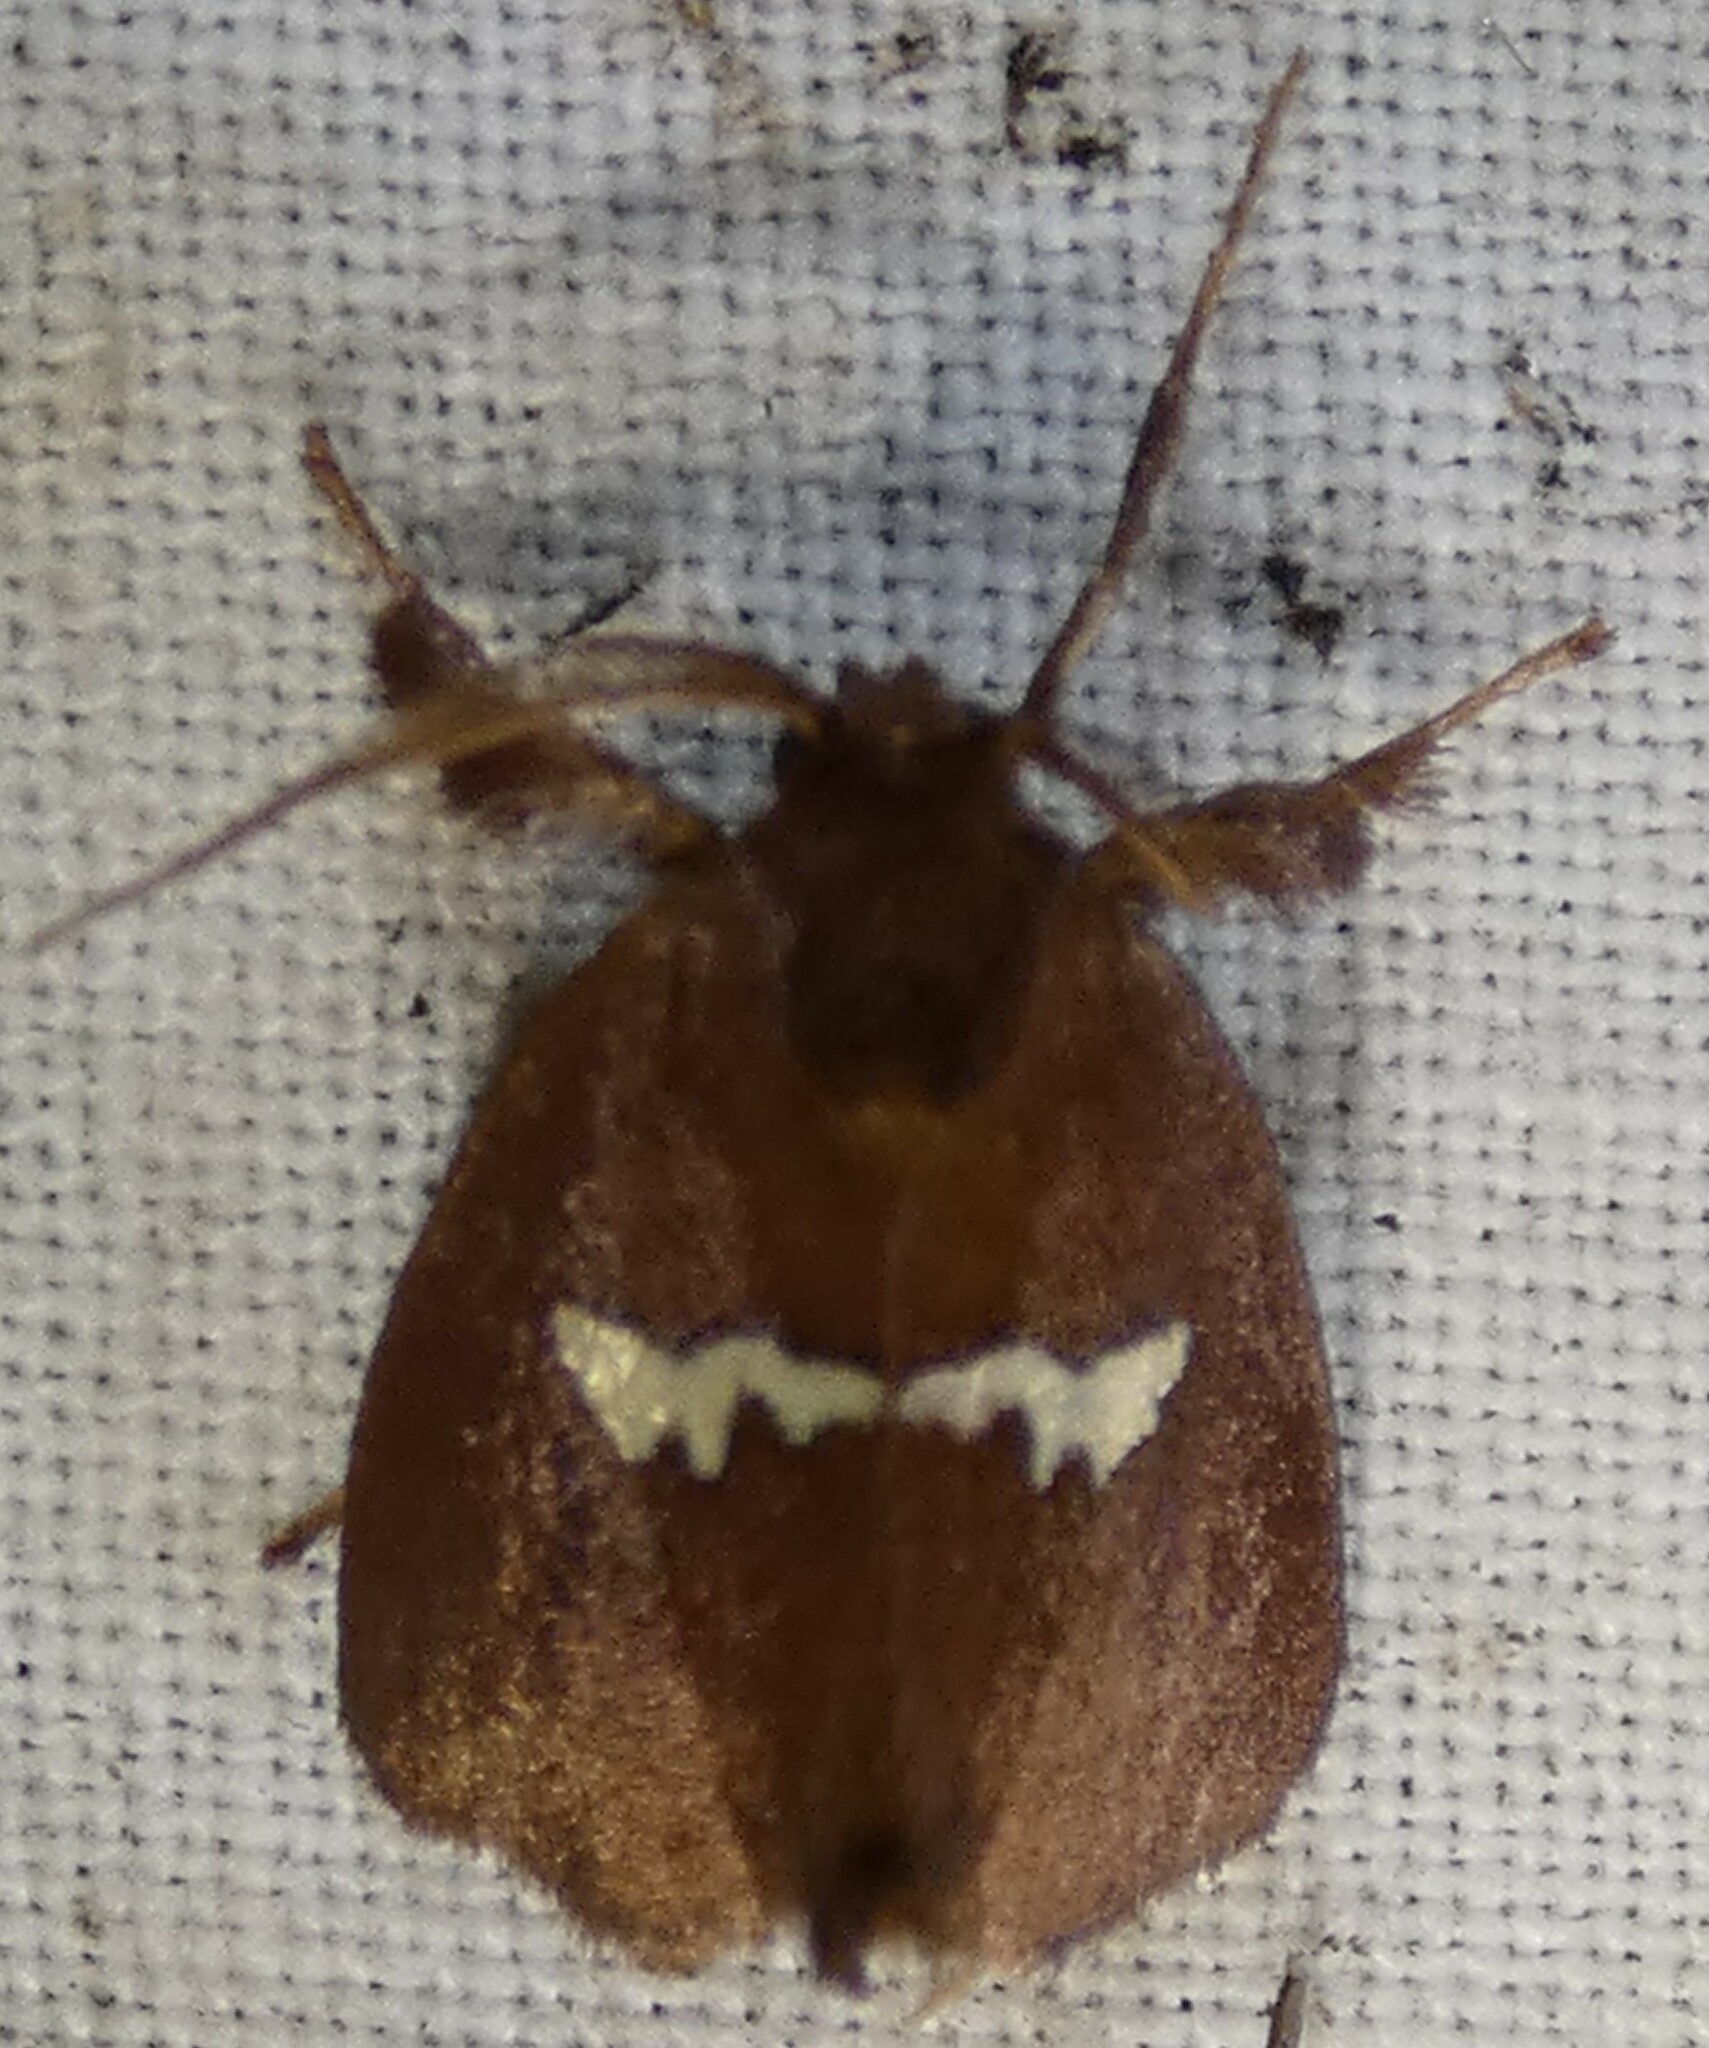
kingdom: Animalia
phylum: Arthropoda
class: Insecta
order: Lepidoptera
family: Limacodidae
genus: Monoleuca
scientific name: Monoleuca semifascia
